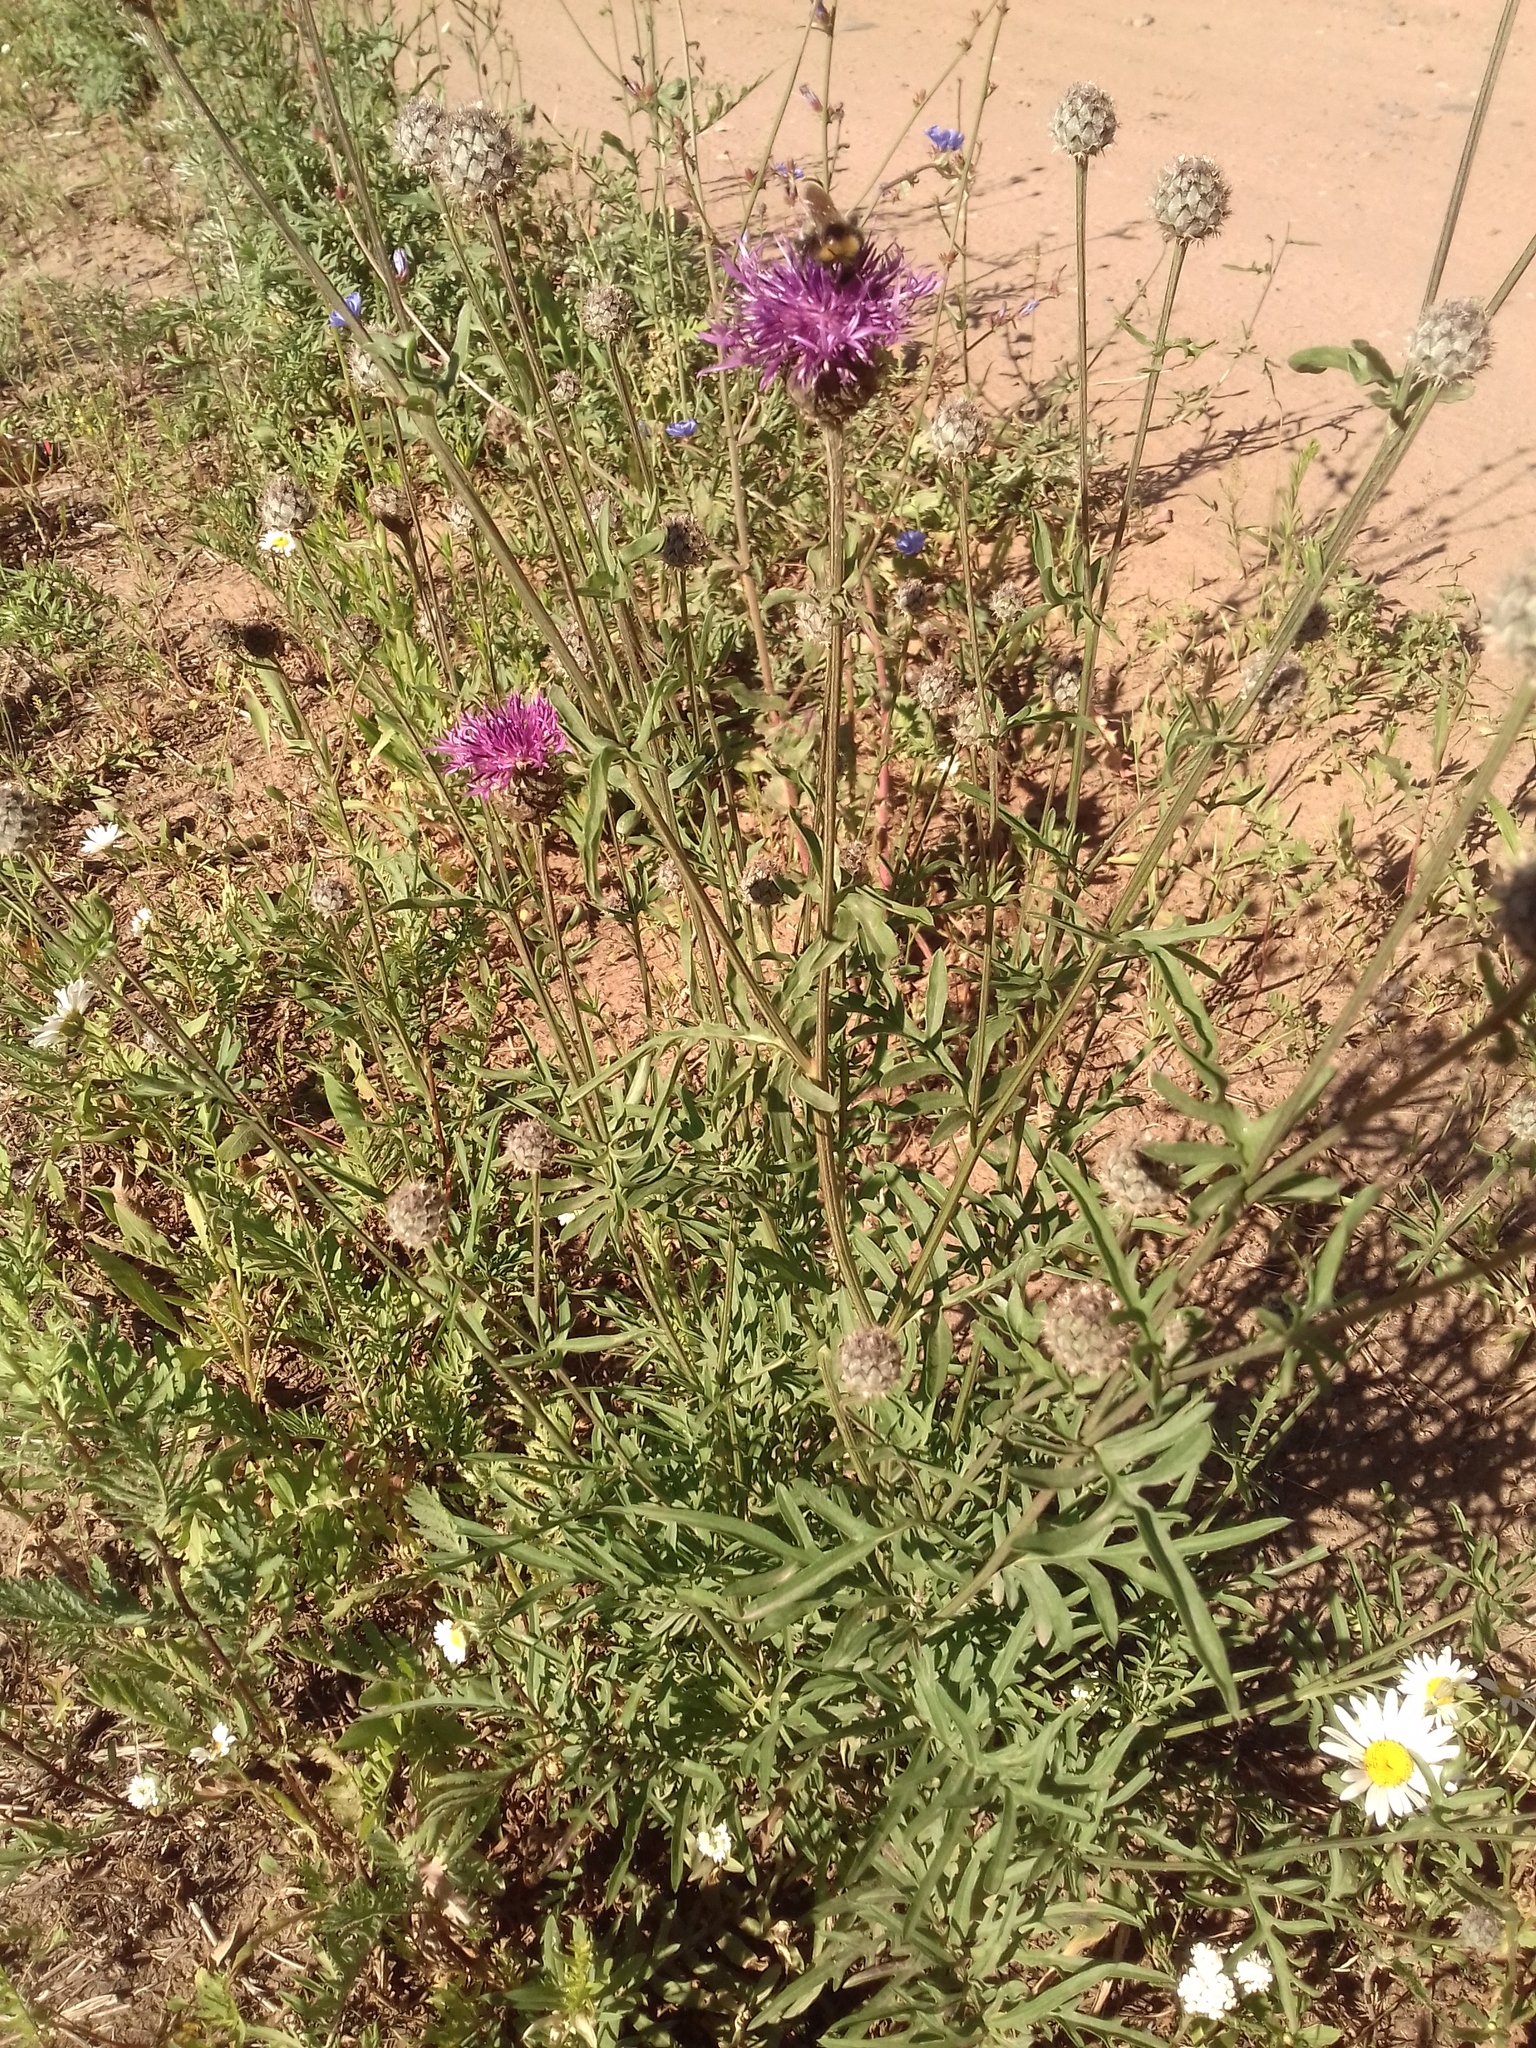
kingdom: Plantae
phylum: Tracheophyta
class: Magnoliopsida
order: Asterales
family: Asteraceae
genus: Centaurea
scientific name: Centaurea scabiosa
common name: Greater knapweed
